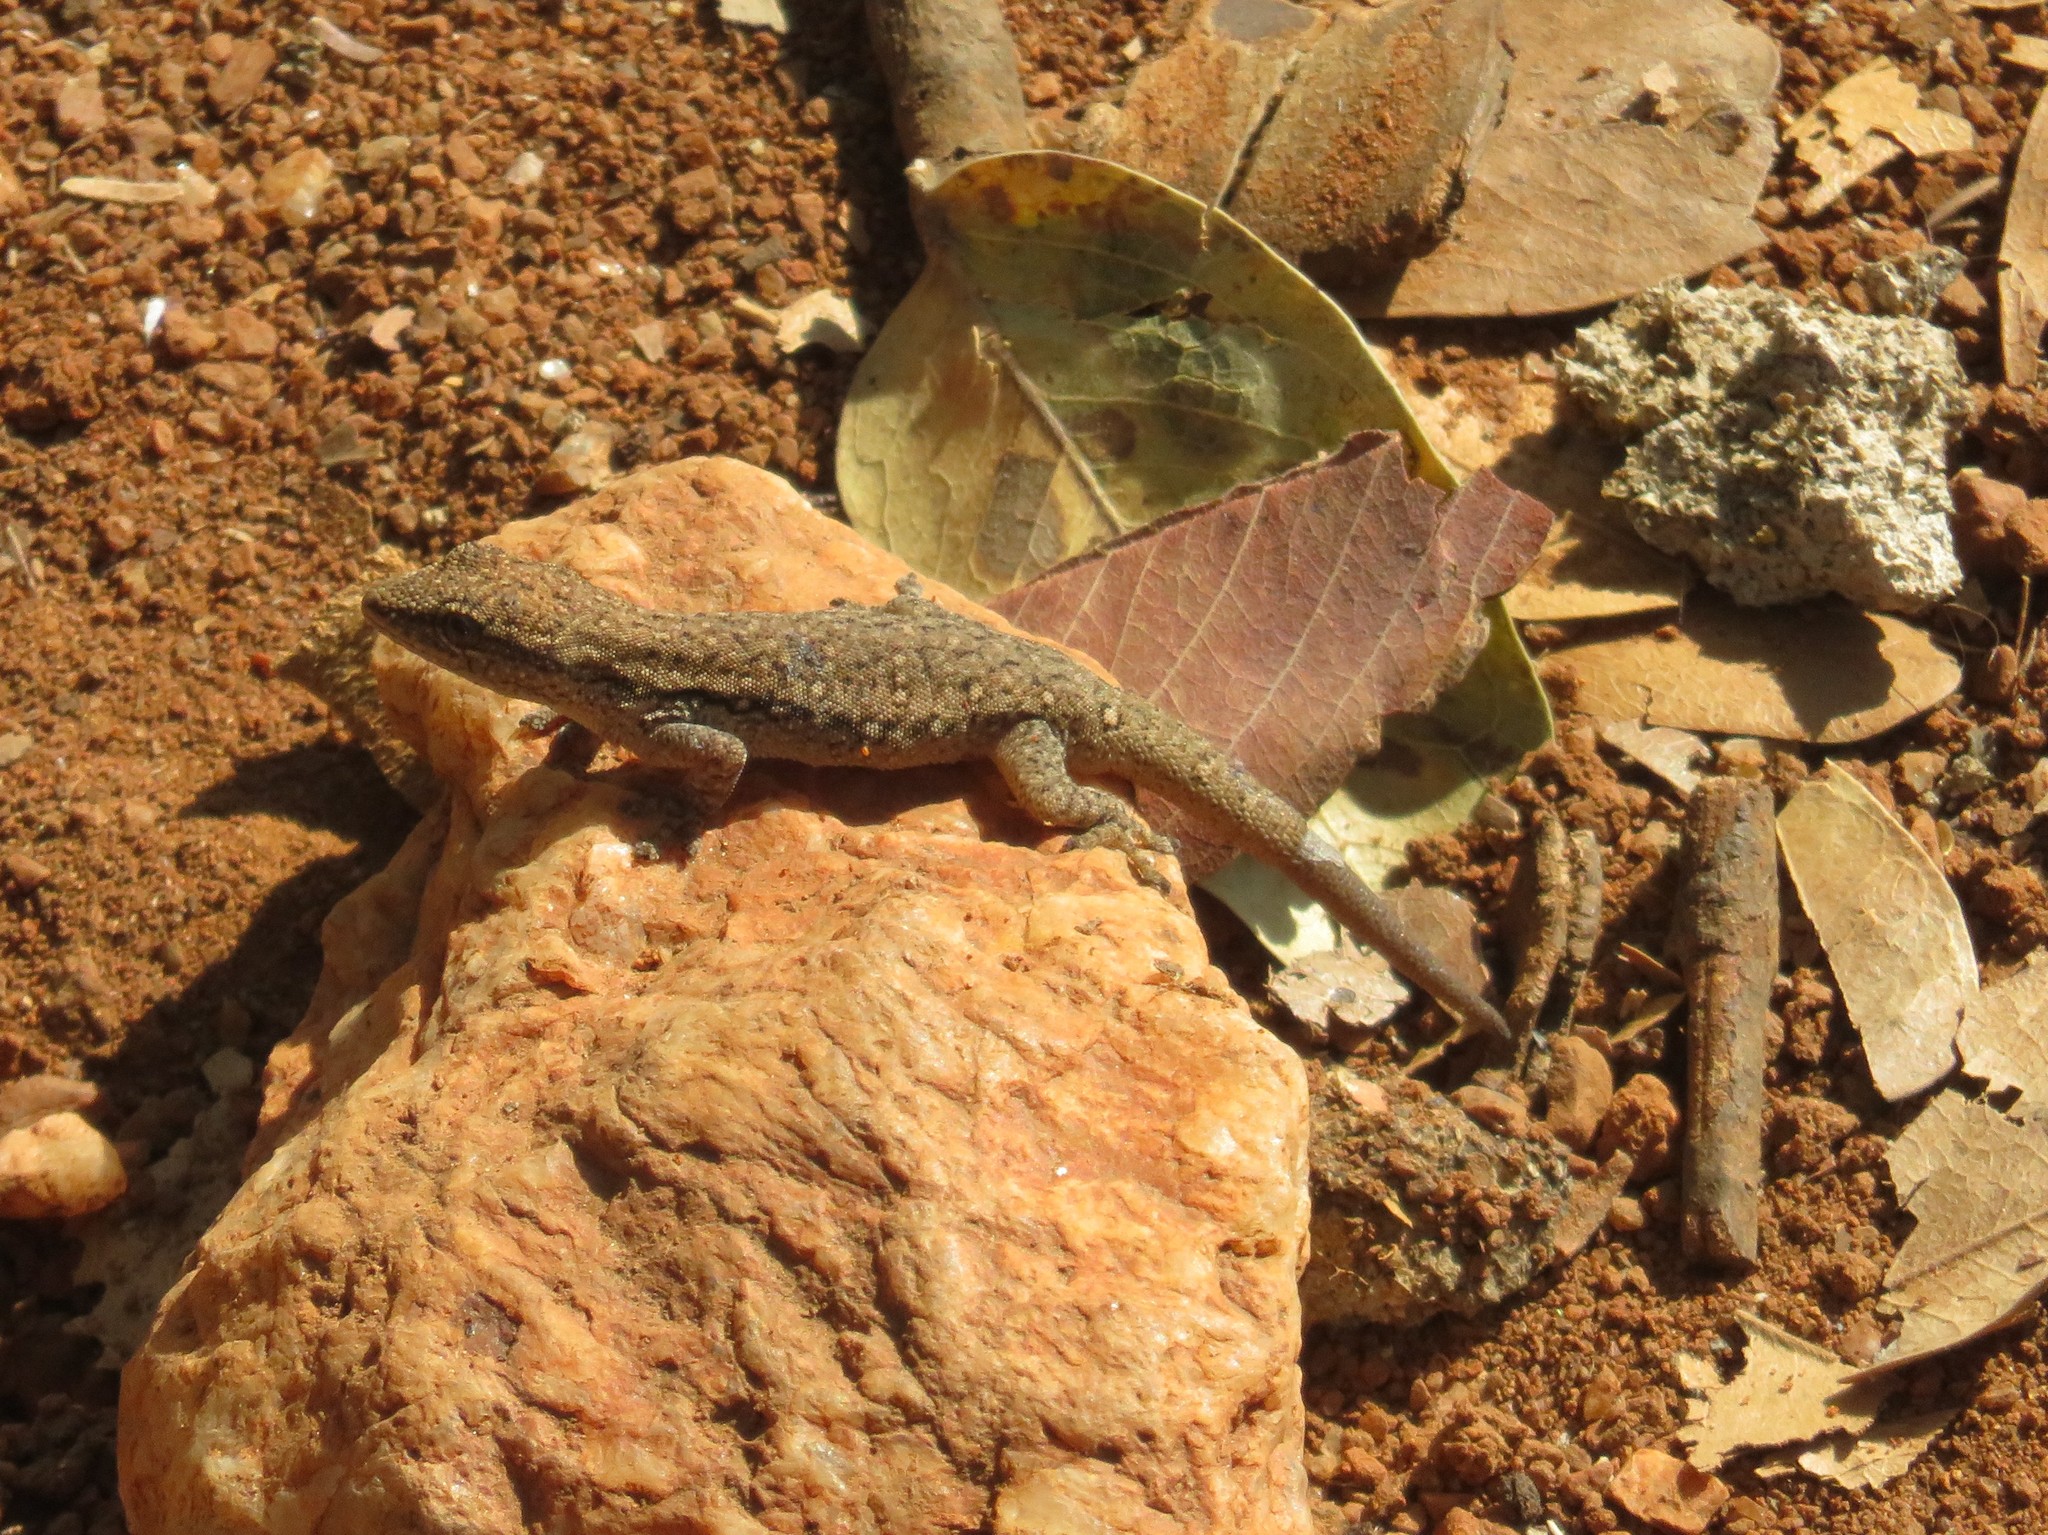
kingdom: Animalia
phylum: Chordata
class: Squamata
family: Gekkonidae
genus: Lygodactylus
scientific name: Lygodactylus capensis
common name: Cape dwarf gecko
